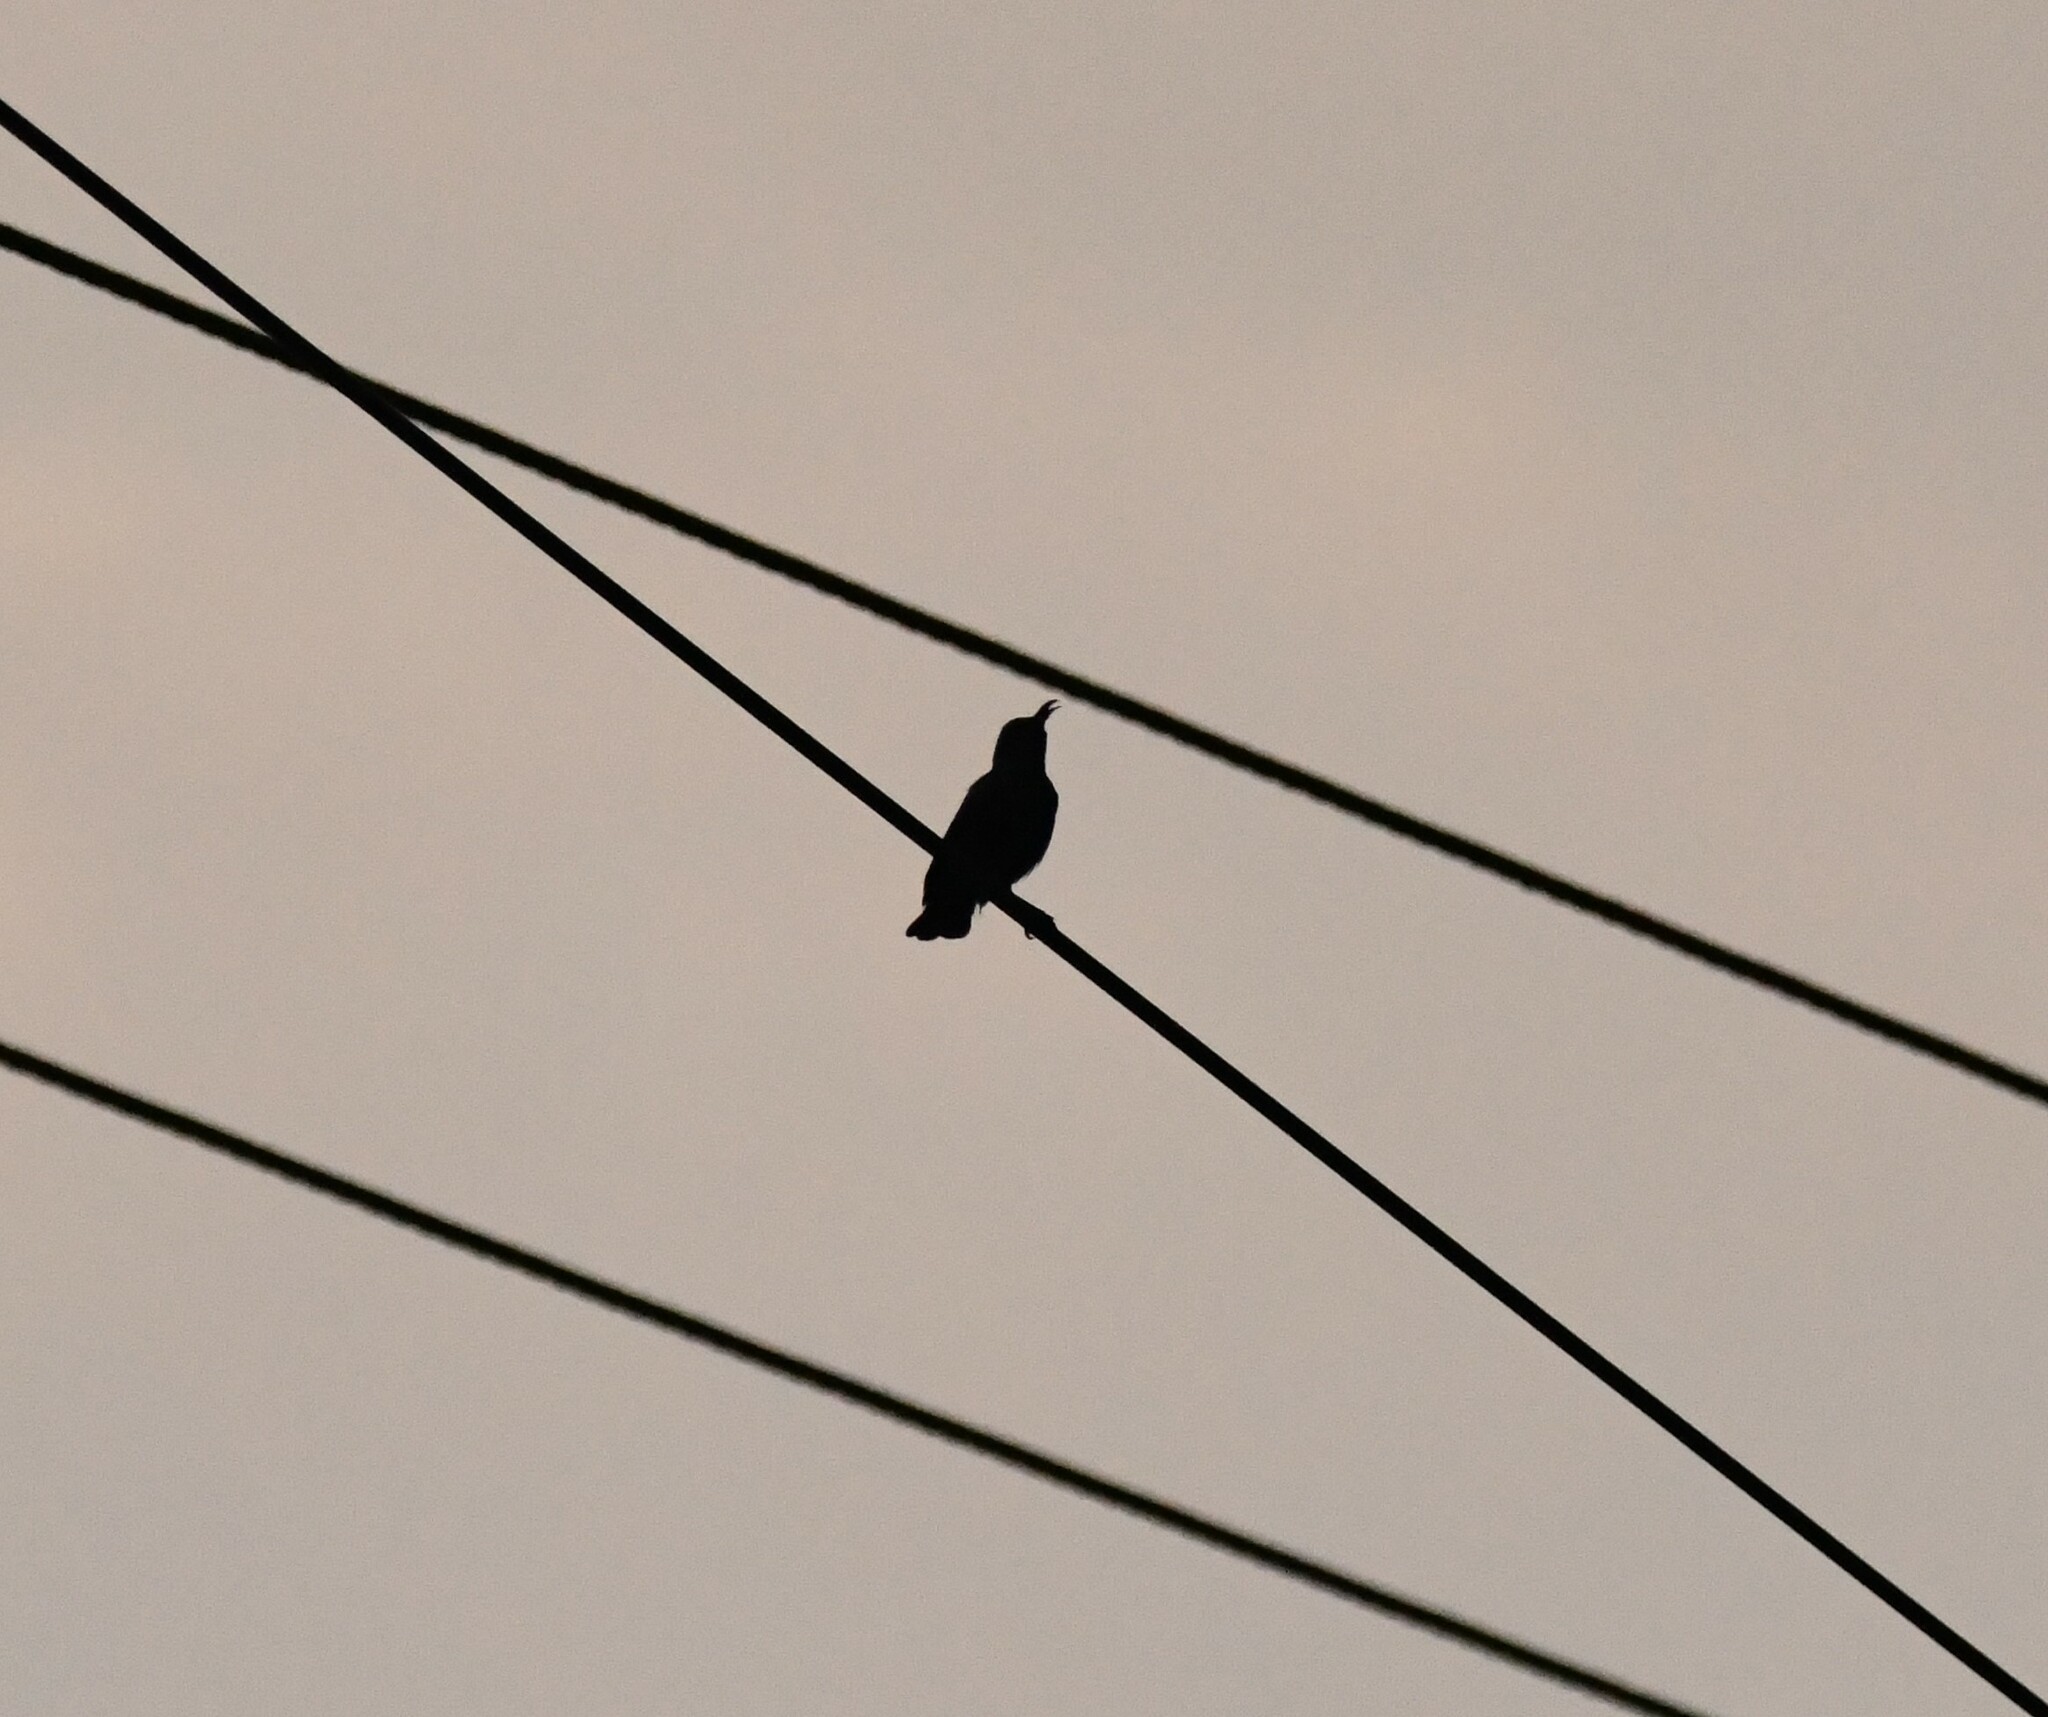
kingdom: Animalia
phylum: Chordata
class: Aves
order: Passeriformes
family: Nectariniidae
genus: Cinnyris
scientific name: Cinnyris asiaticus
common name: Purple sunbird
